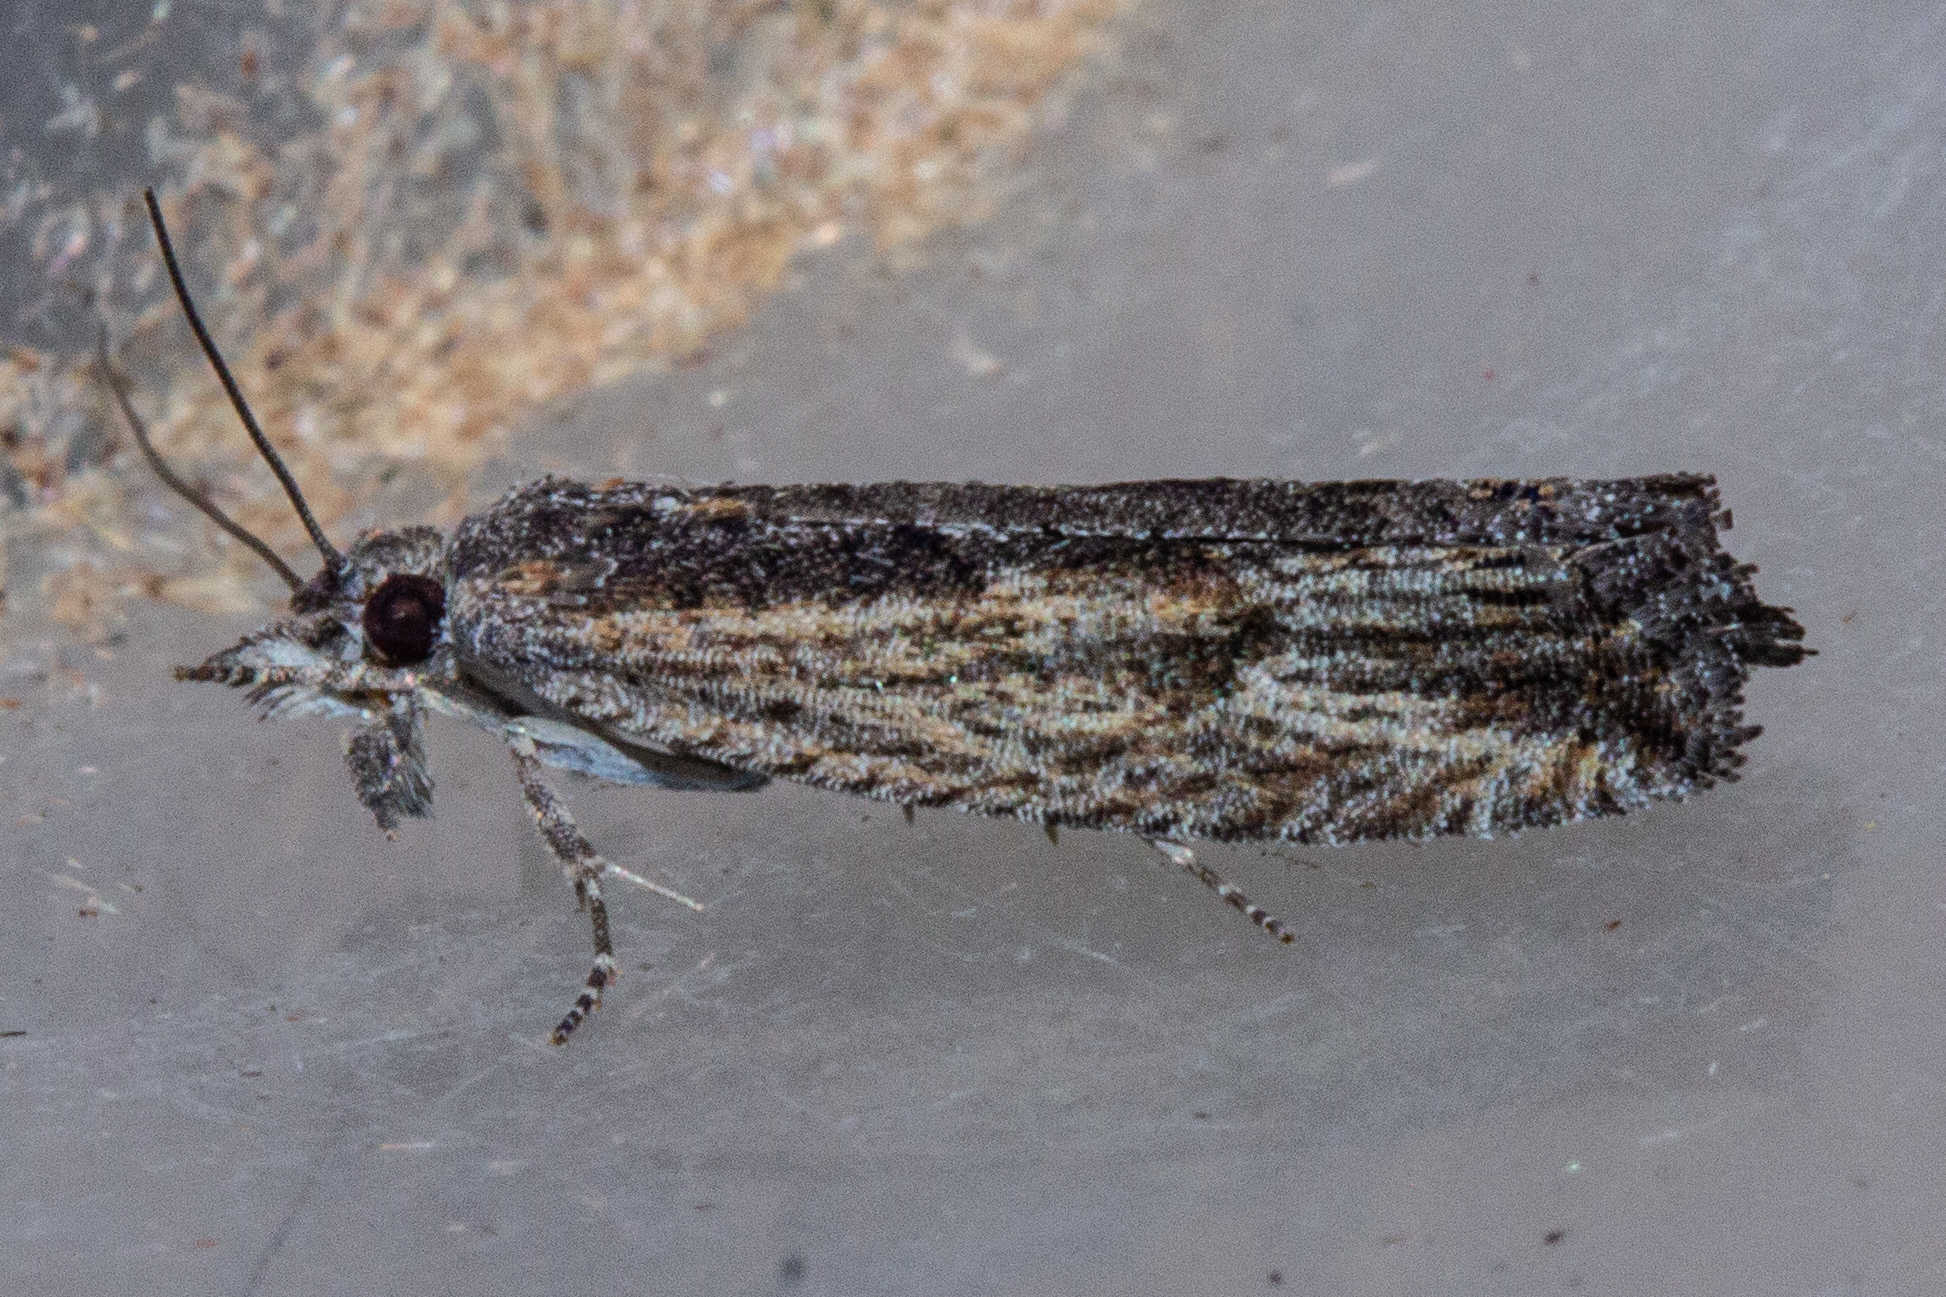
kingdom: Animalia
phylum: Arthropoda
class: Insecta
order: Lepidoptera
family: Tortricidae
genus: Strepsicrates
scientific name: Strepsicrates ejectana
